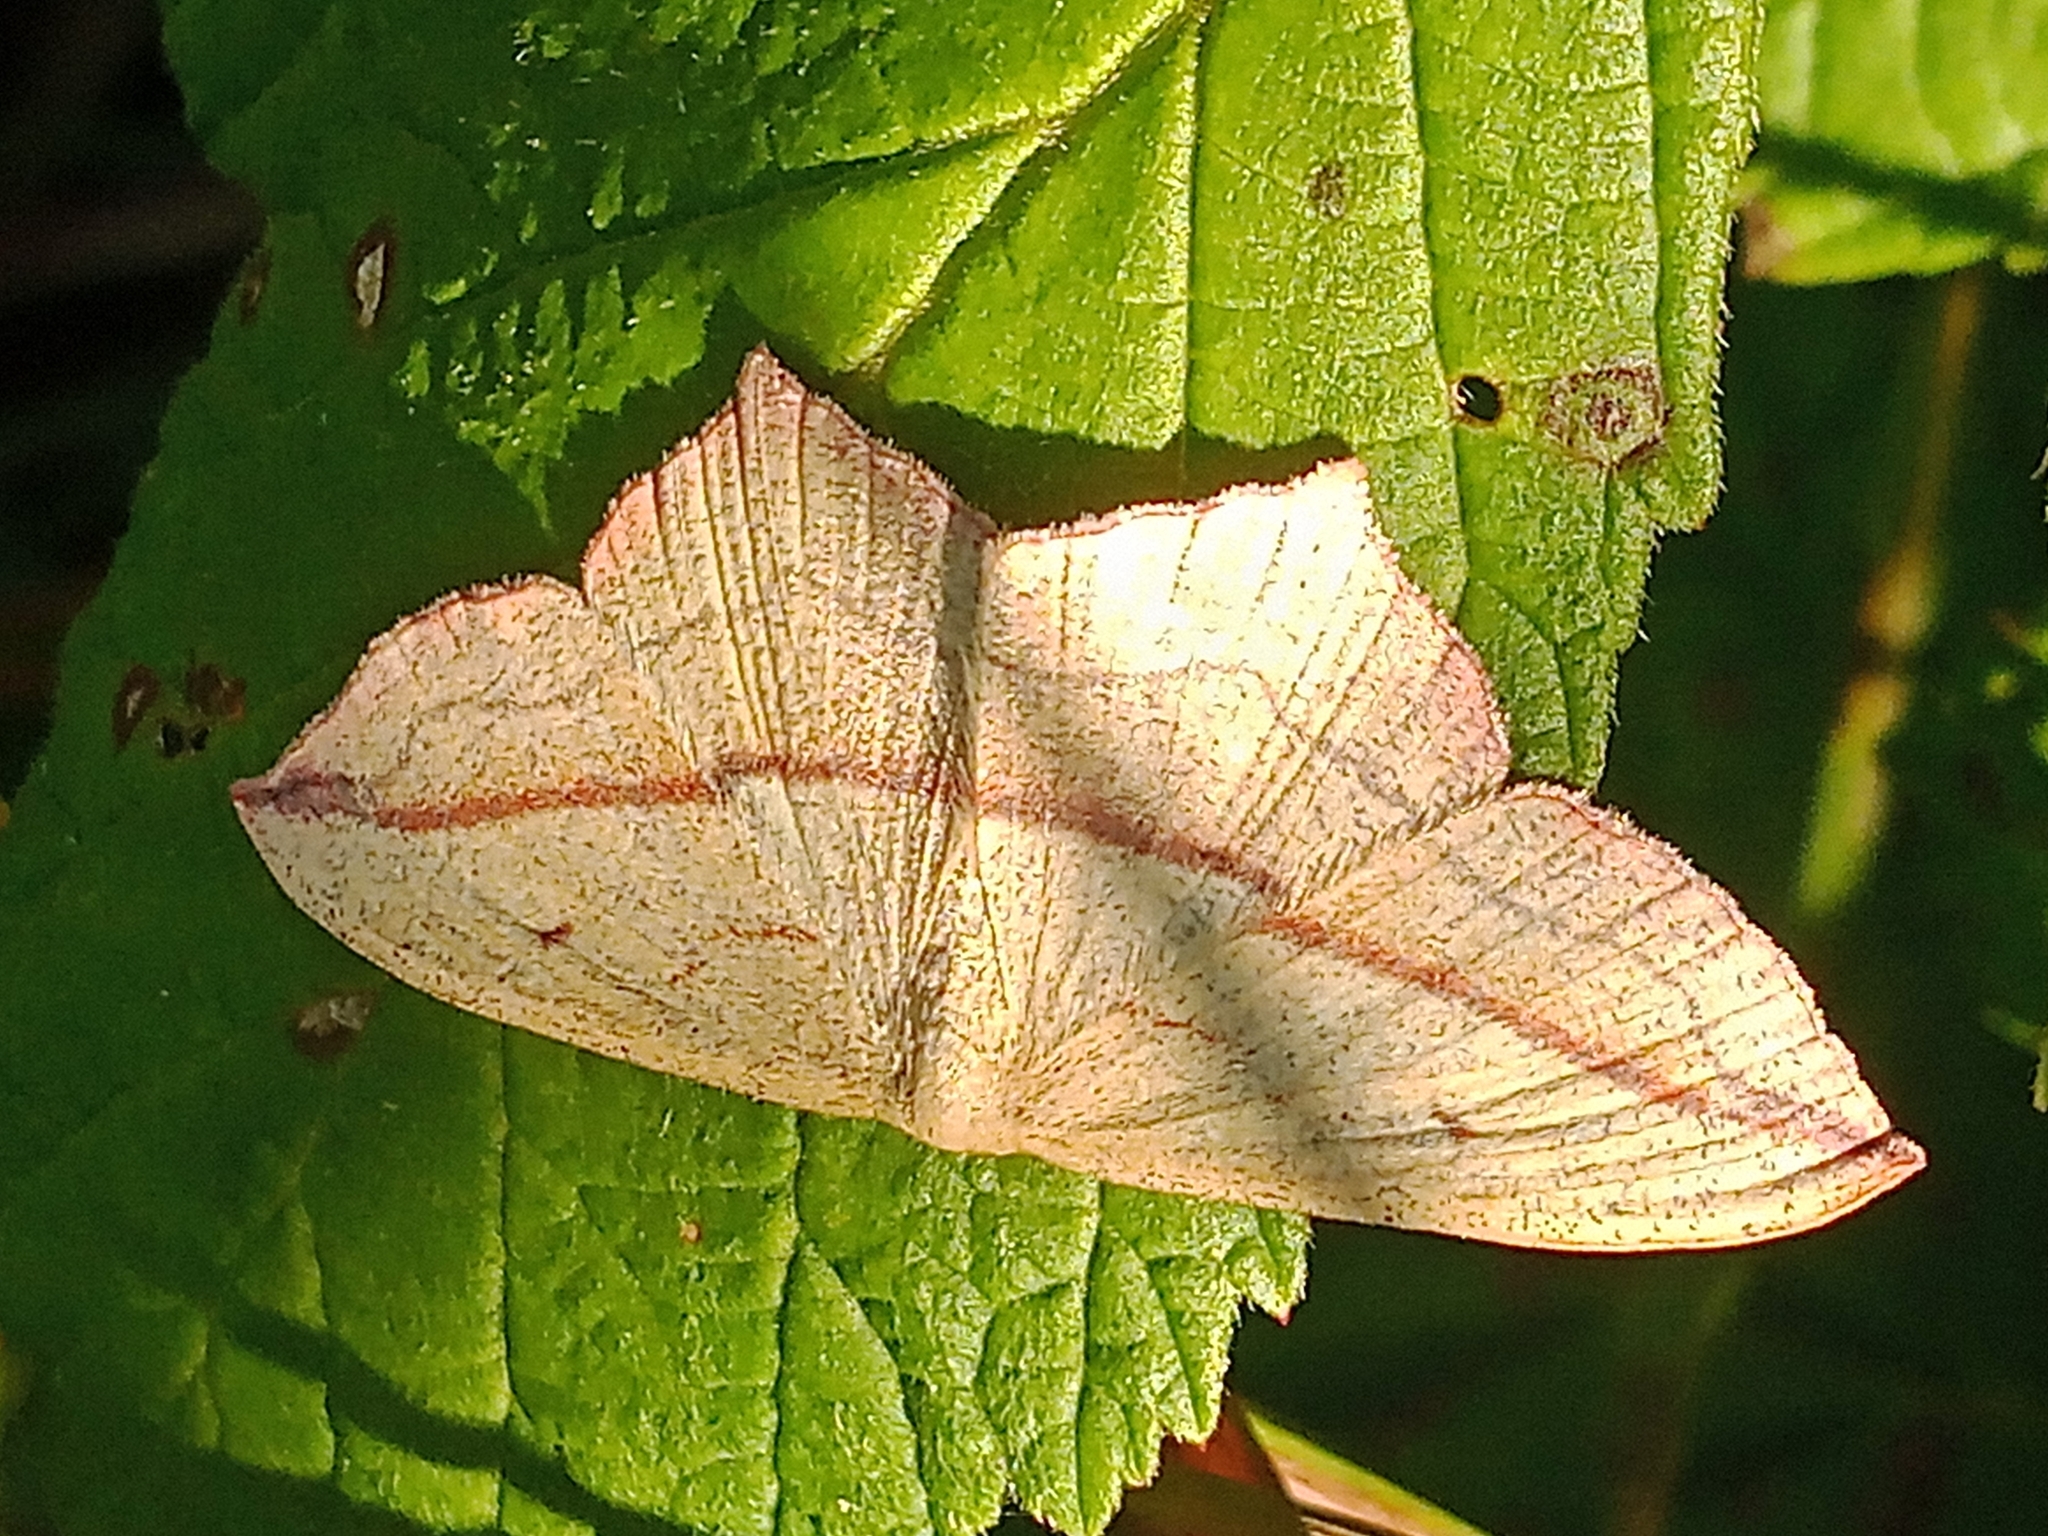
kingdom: Animalia
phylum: Arthropoda
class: Insecta
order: Lepidoptera
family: Geometridae
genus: Timandra
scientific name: Timandra comae
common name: Blood-vein
